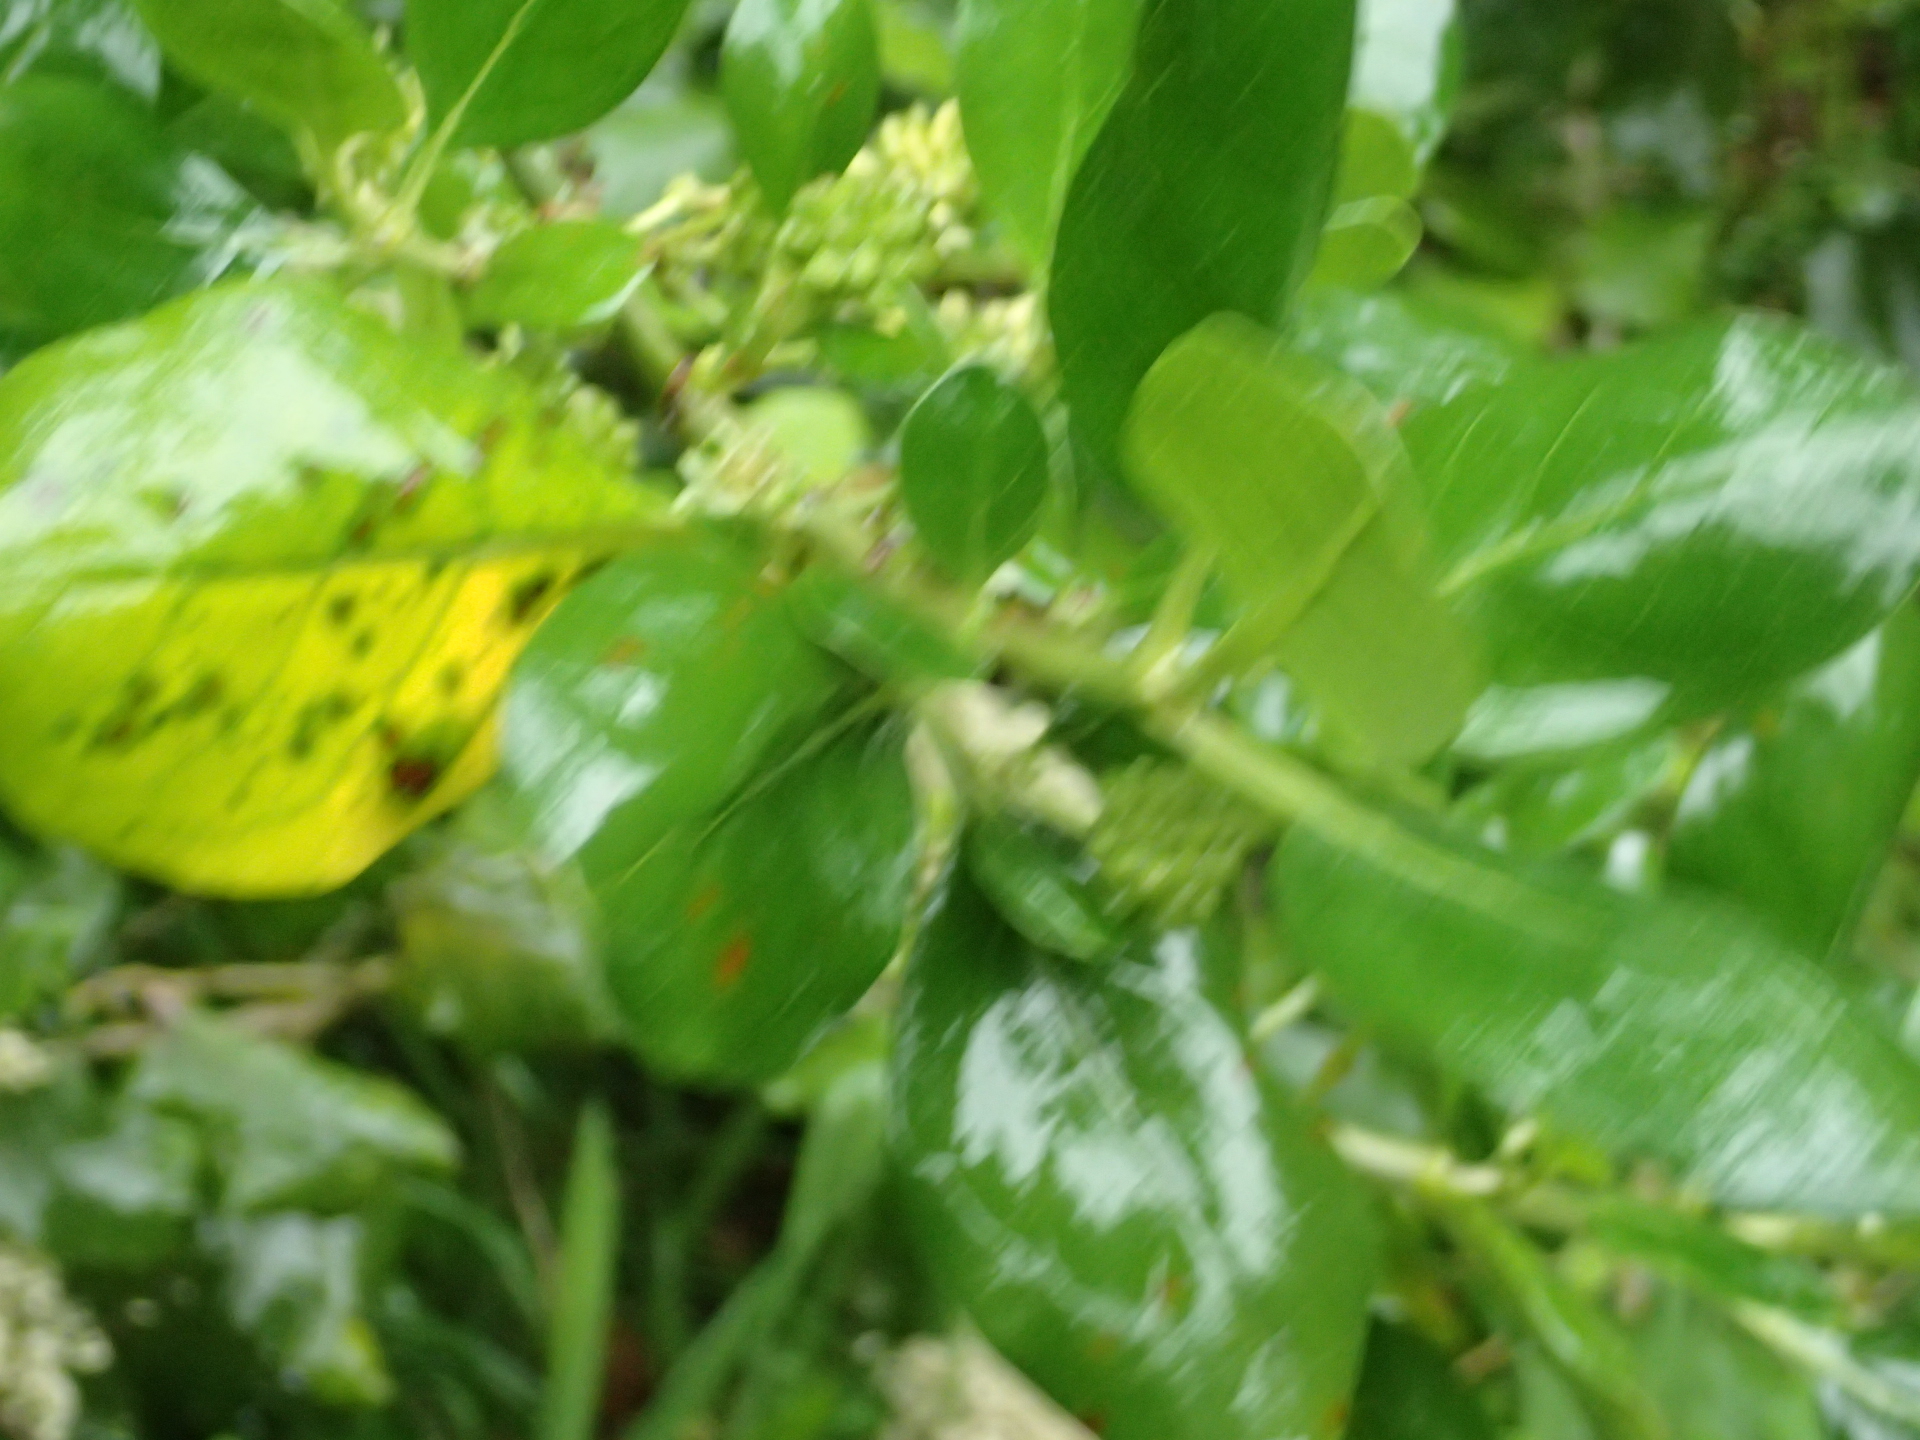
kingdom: Plantae
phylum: Tracheophyta
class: Magnoliopsida
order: Gentianales
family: Rubiaceae
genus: Coprosma
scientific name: Coprosma repens
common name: Tree bedstraw
